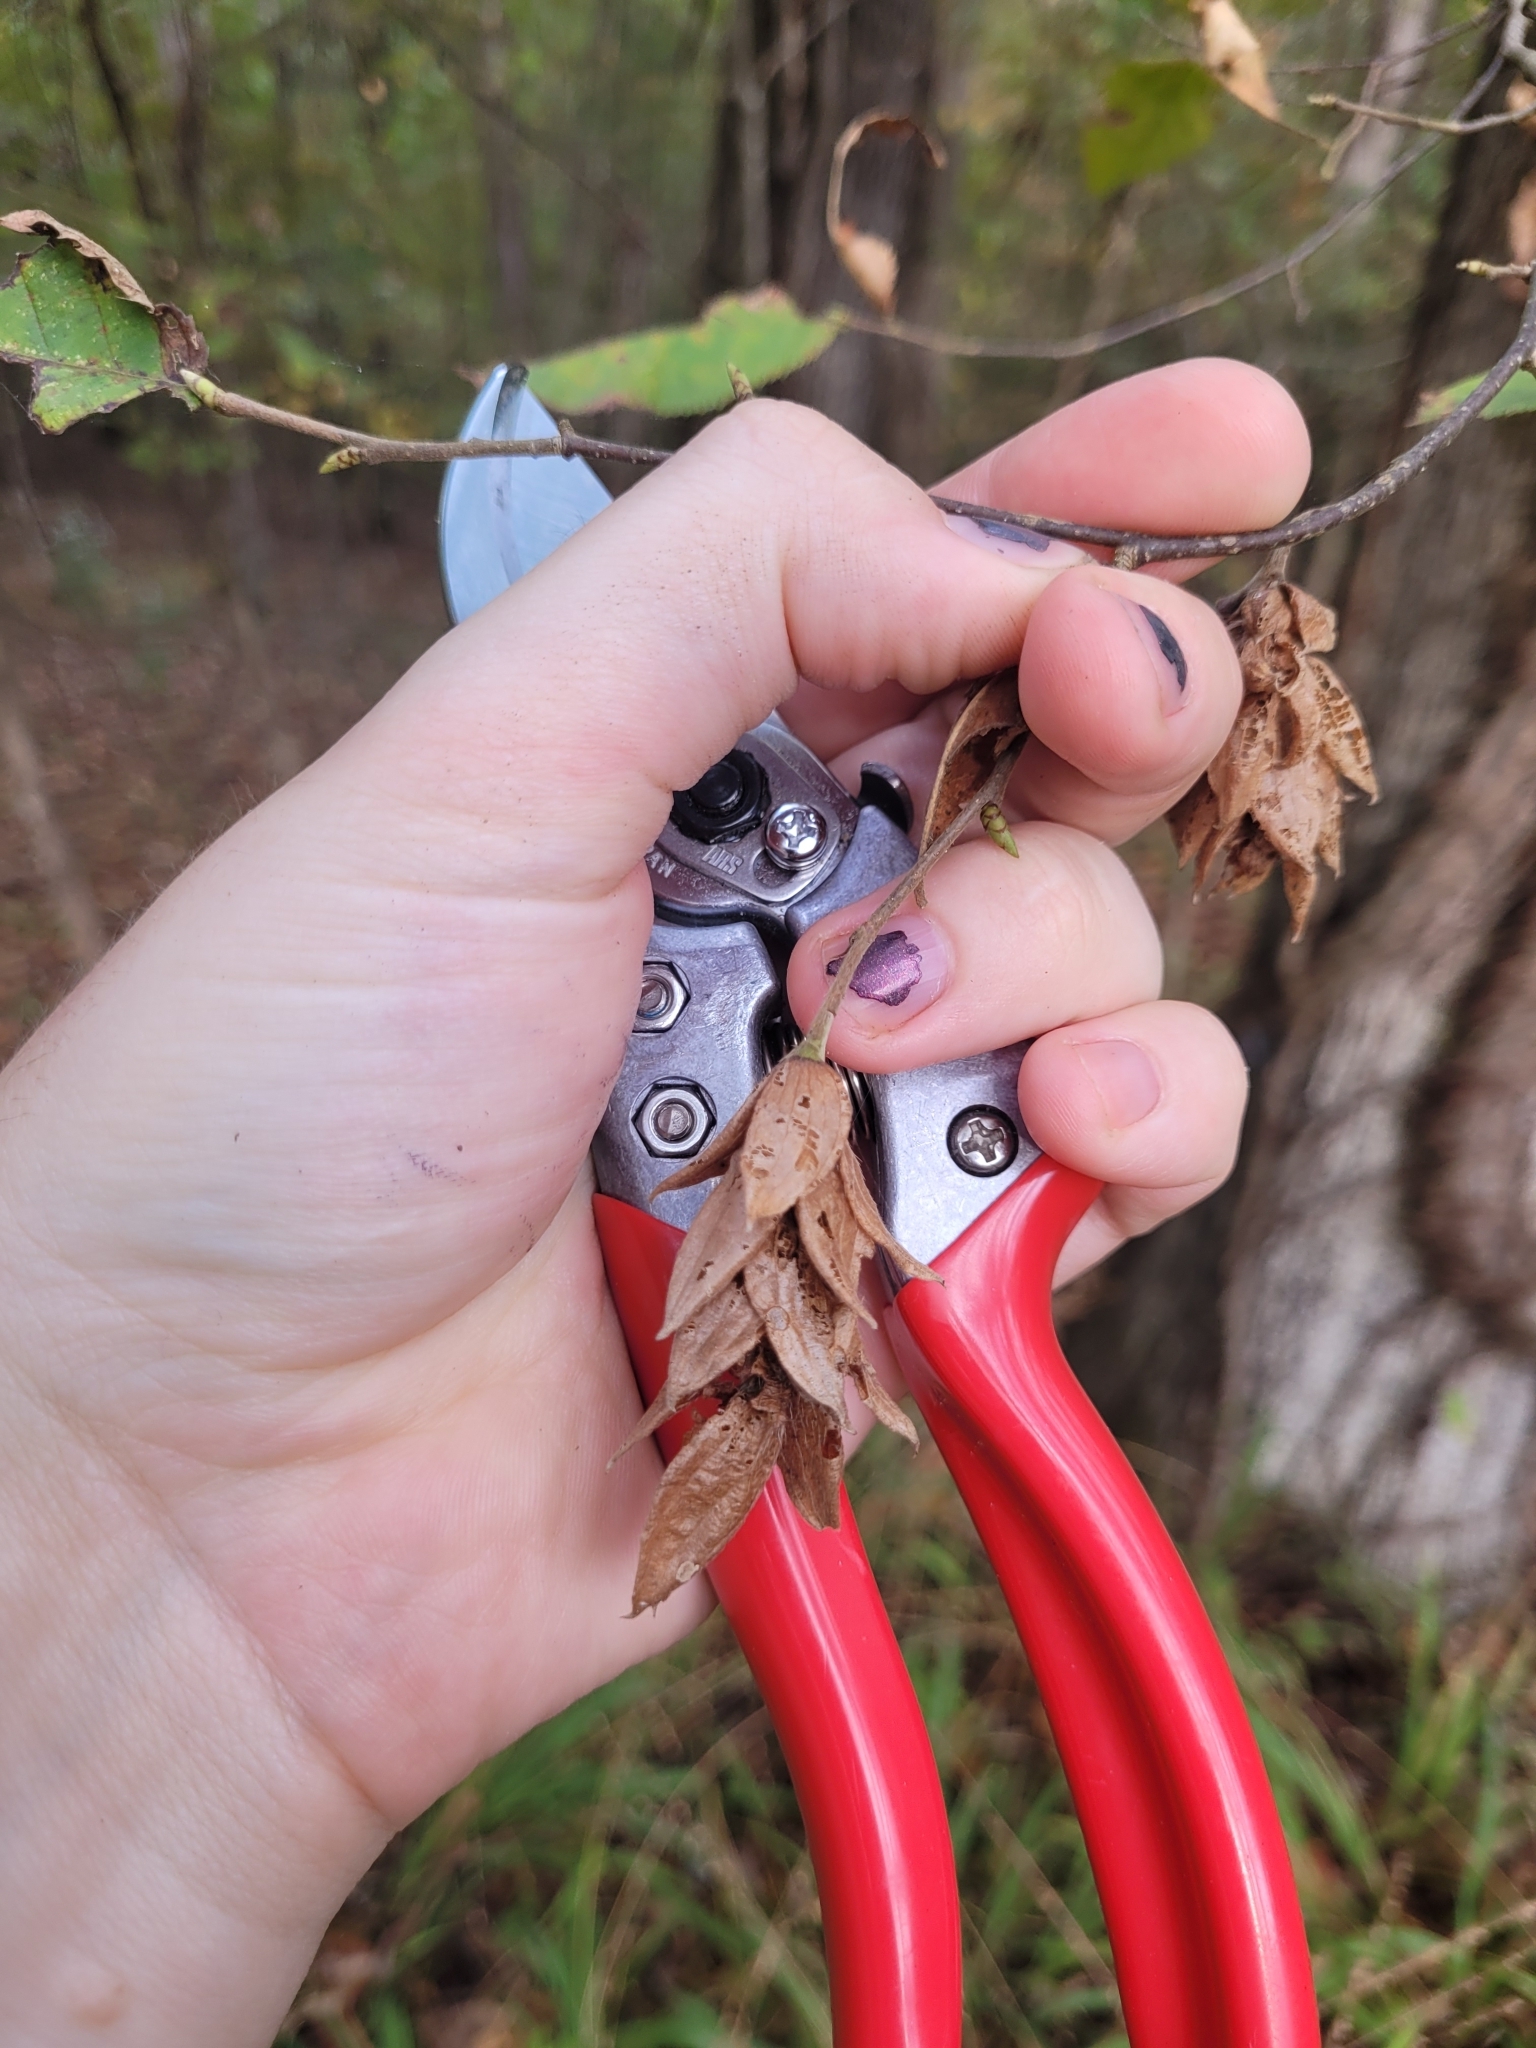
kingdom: Plantae
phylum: Tracheophyta
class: Magnoliopsida
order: Fagales
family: Betulaceae
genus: Ostrya
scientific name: Ostrya virginiana
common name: Ironwood
